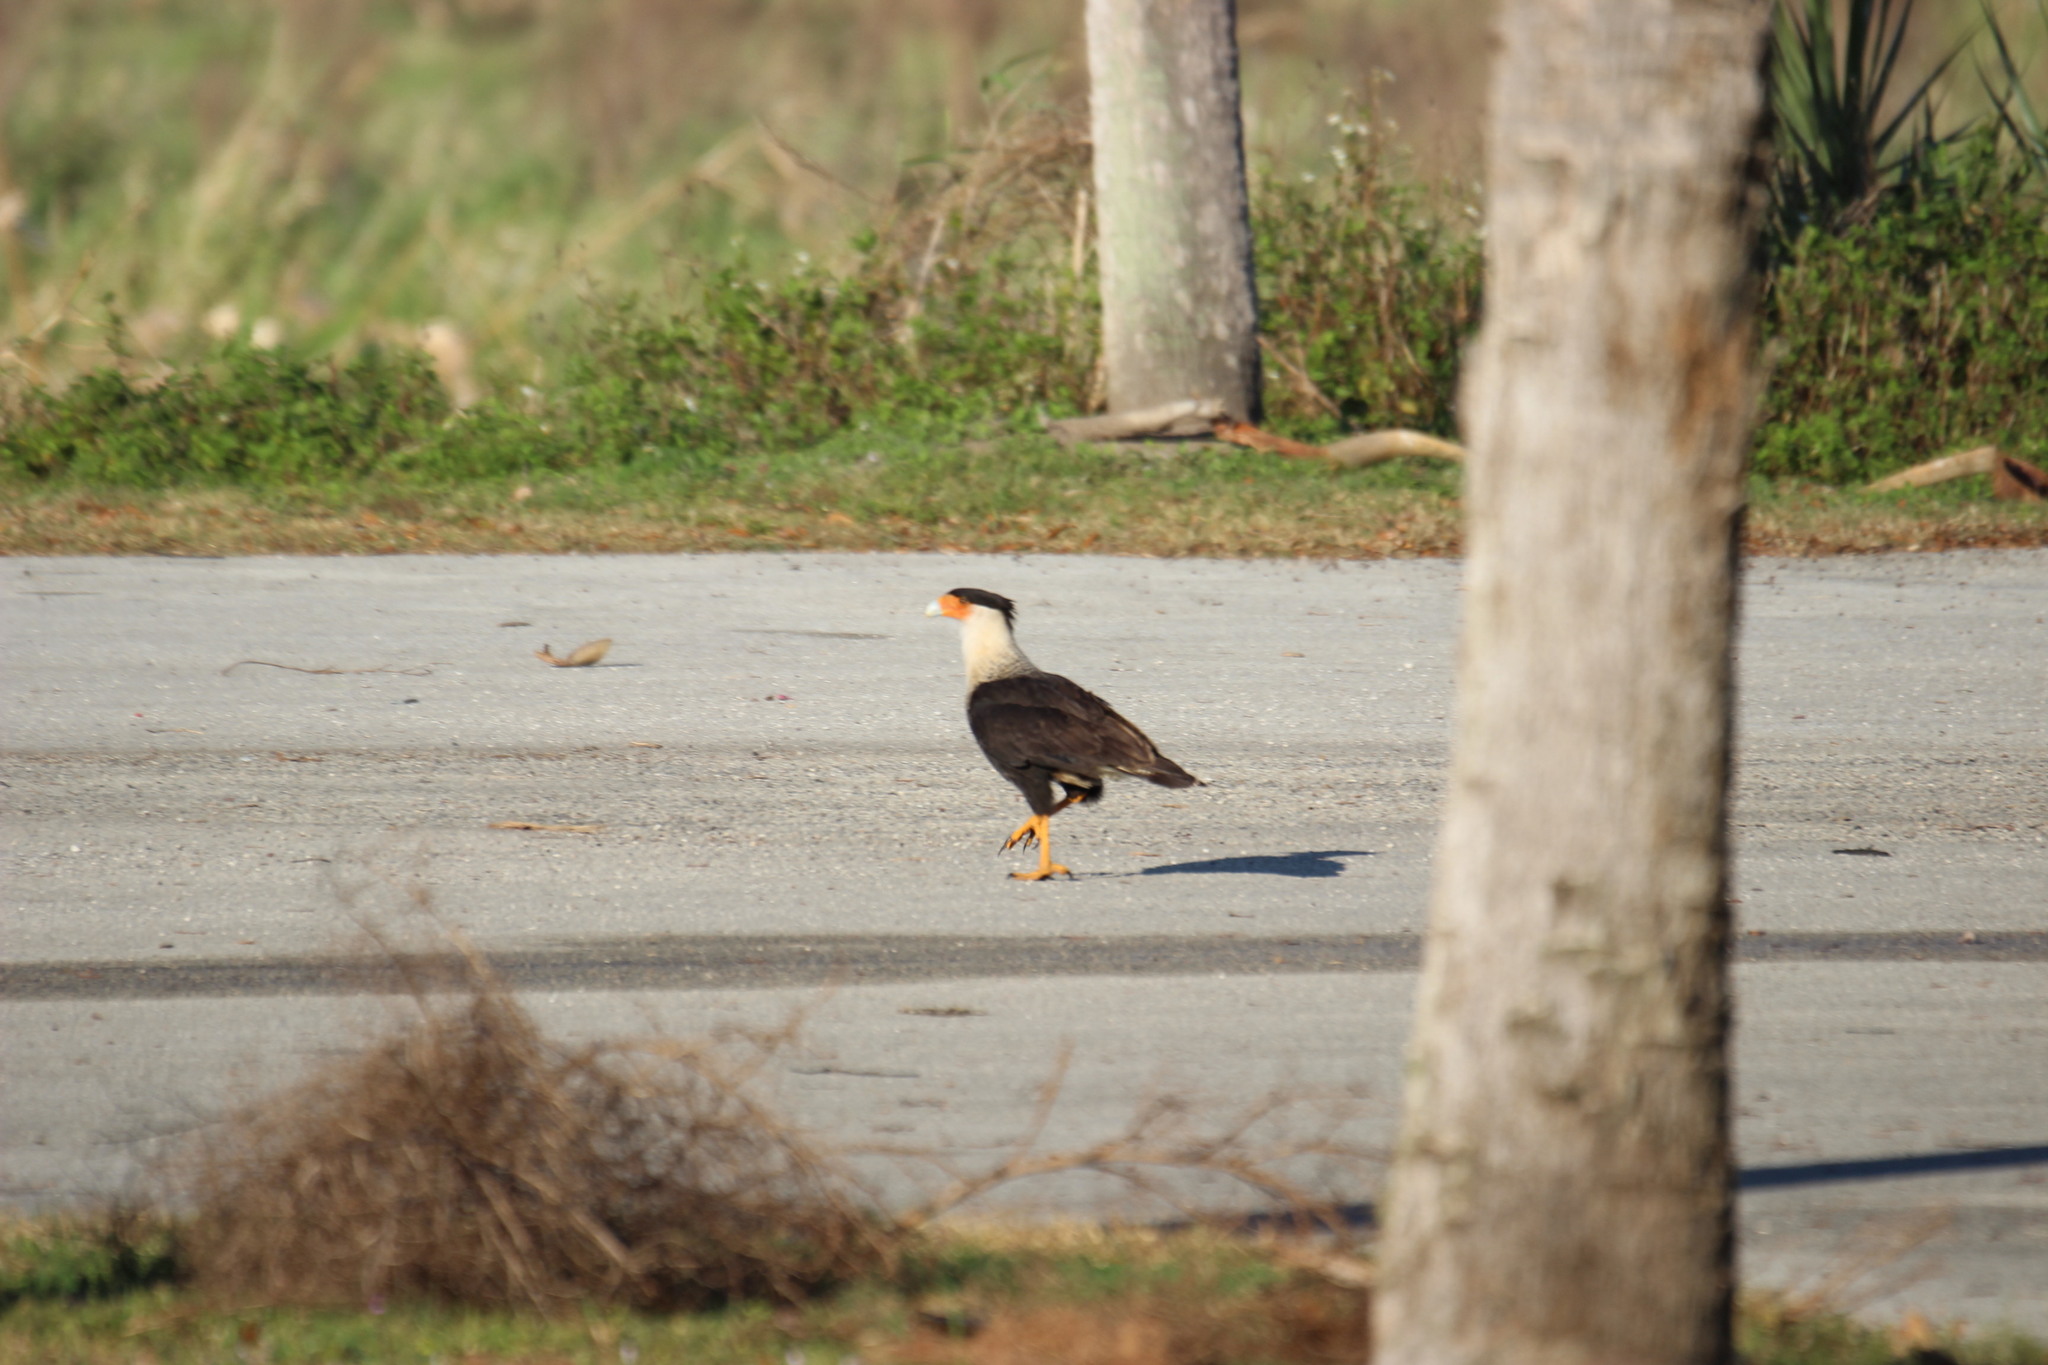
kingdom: Animalia
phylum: Chordata
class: Aves
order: Falconiformes
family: Falconidae
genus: Caracara
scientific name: Caracara plancus
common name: Southern caracara
